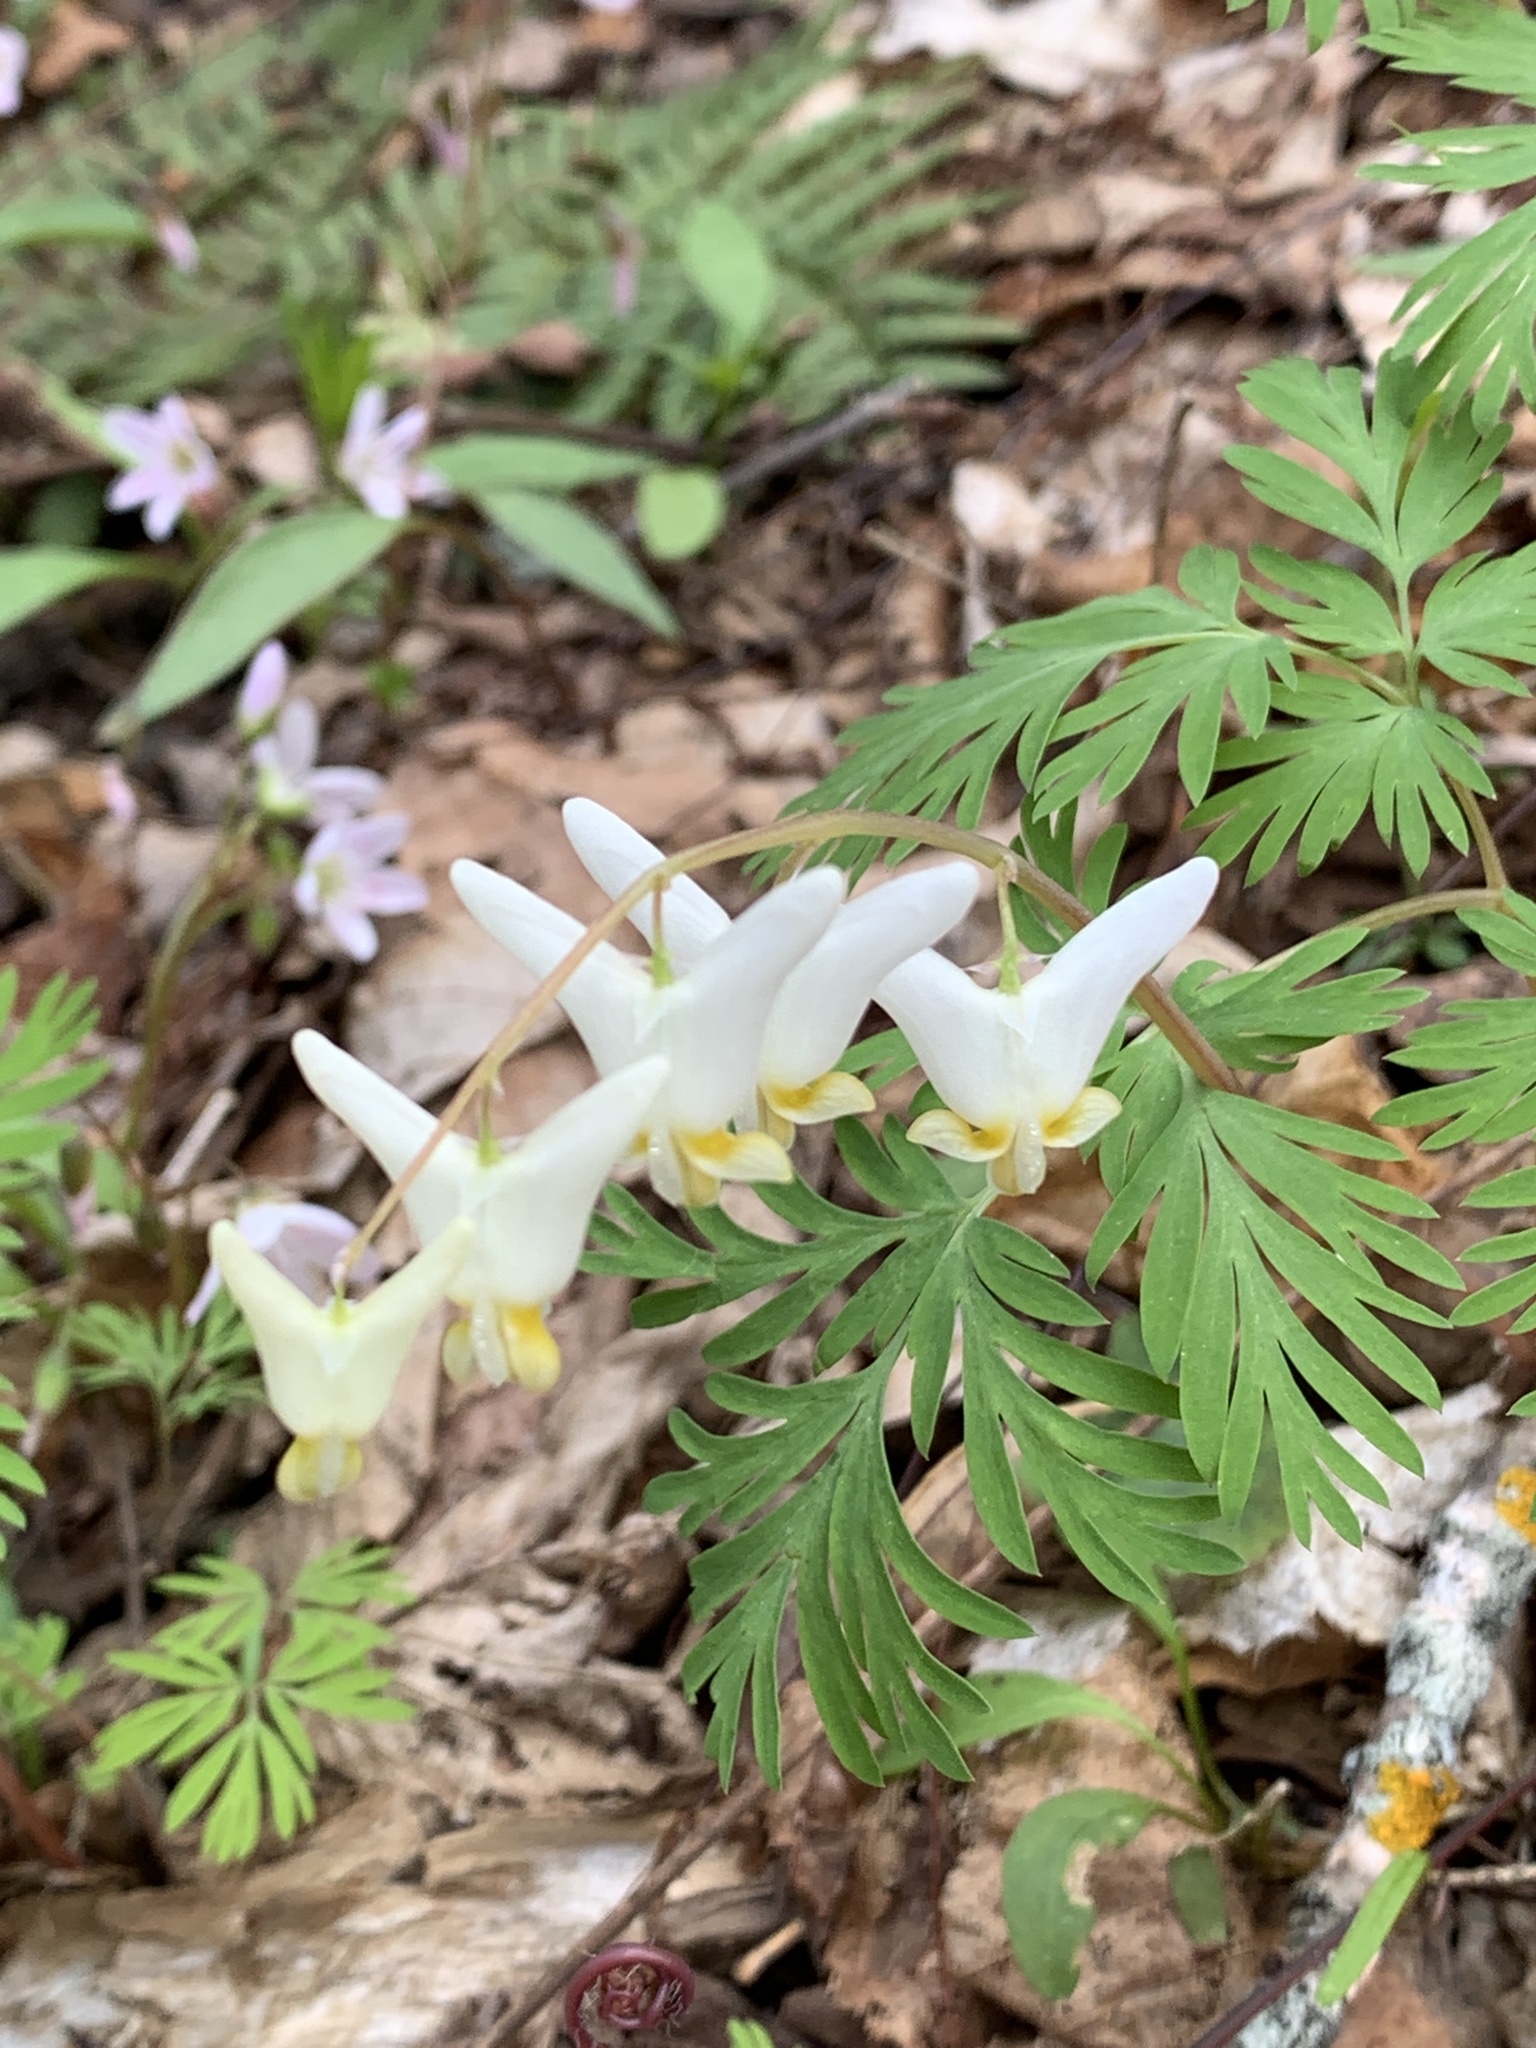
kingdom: Plantae
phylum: Tracheophyta
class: Magnoliopsida
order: Ranunculales
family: Papaveraceae
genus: Dicentra
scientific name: Dicentra cucullaria
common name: Dutchman's breeches
